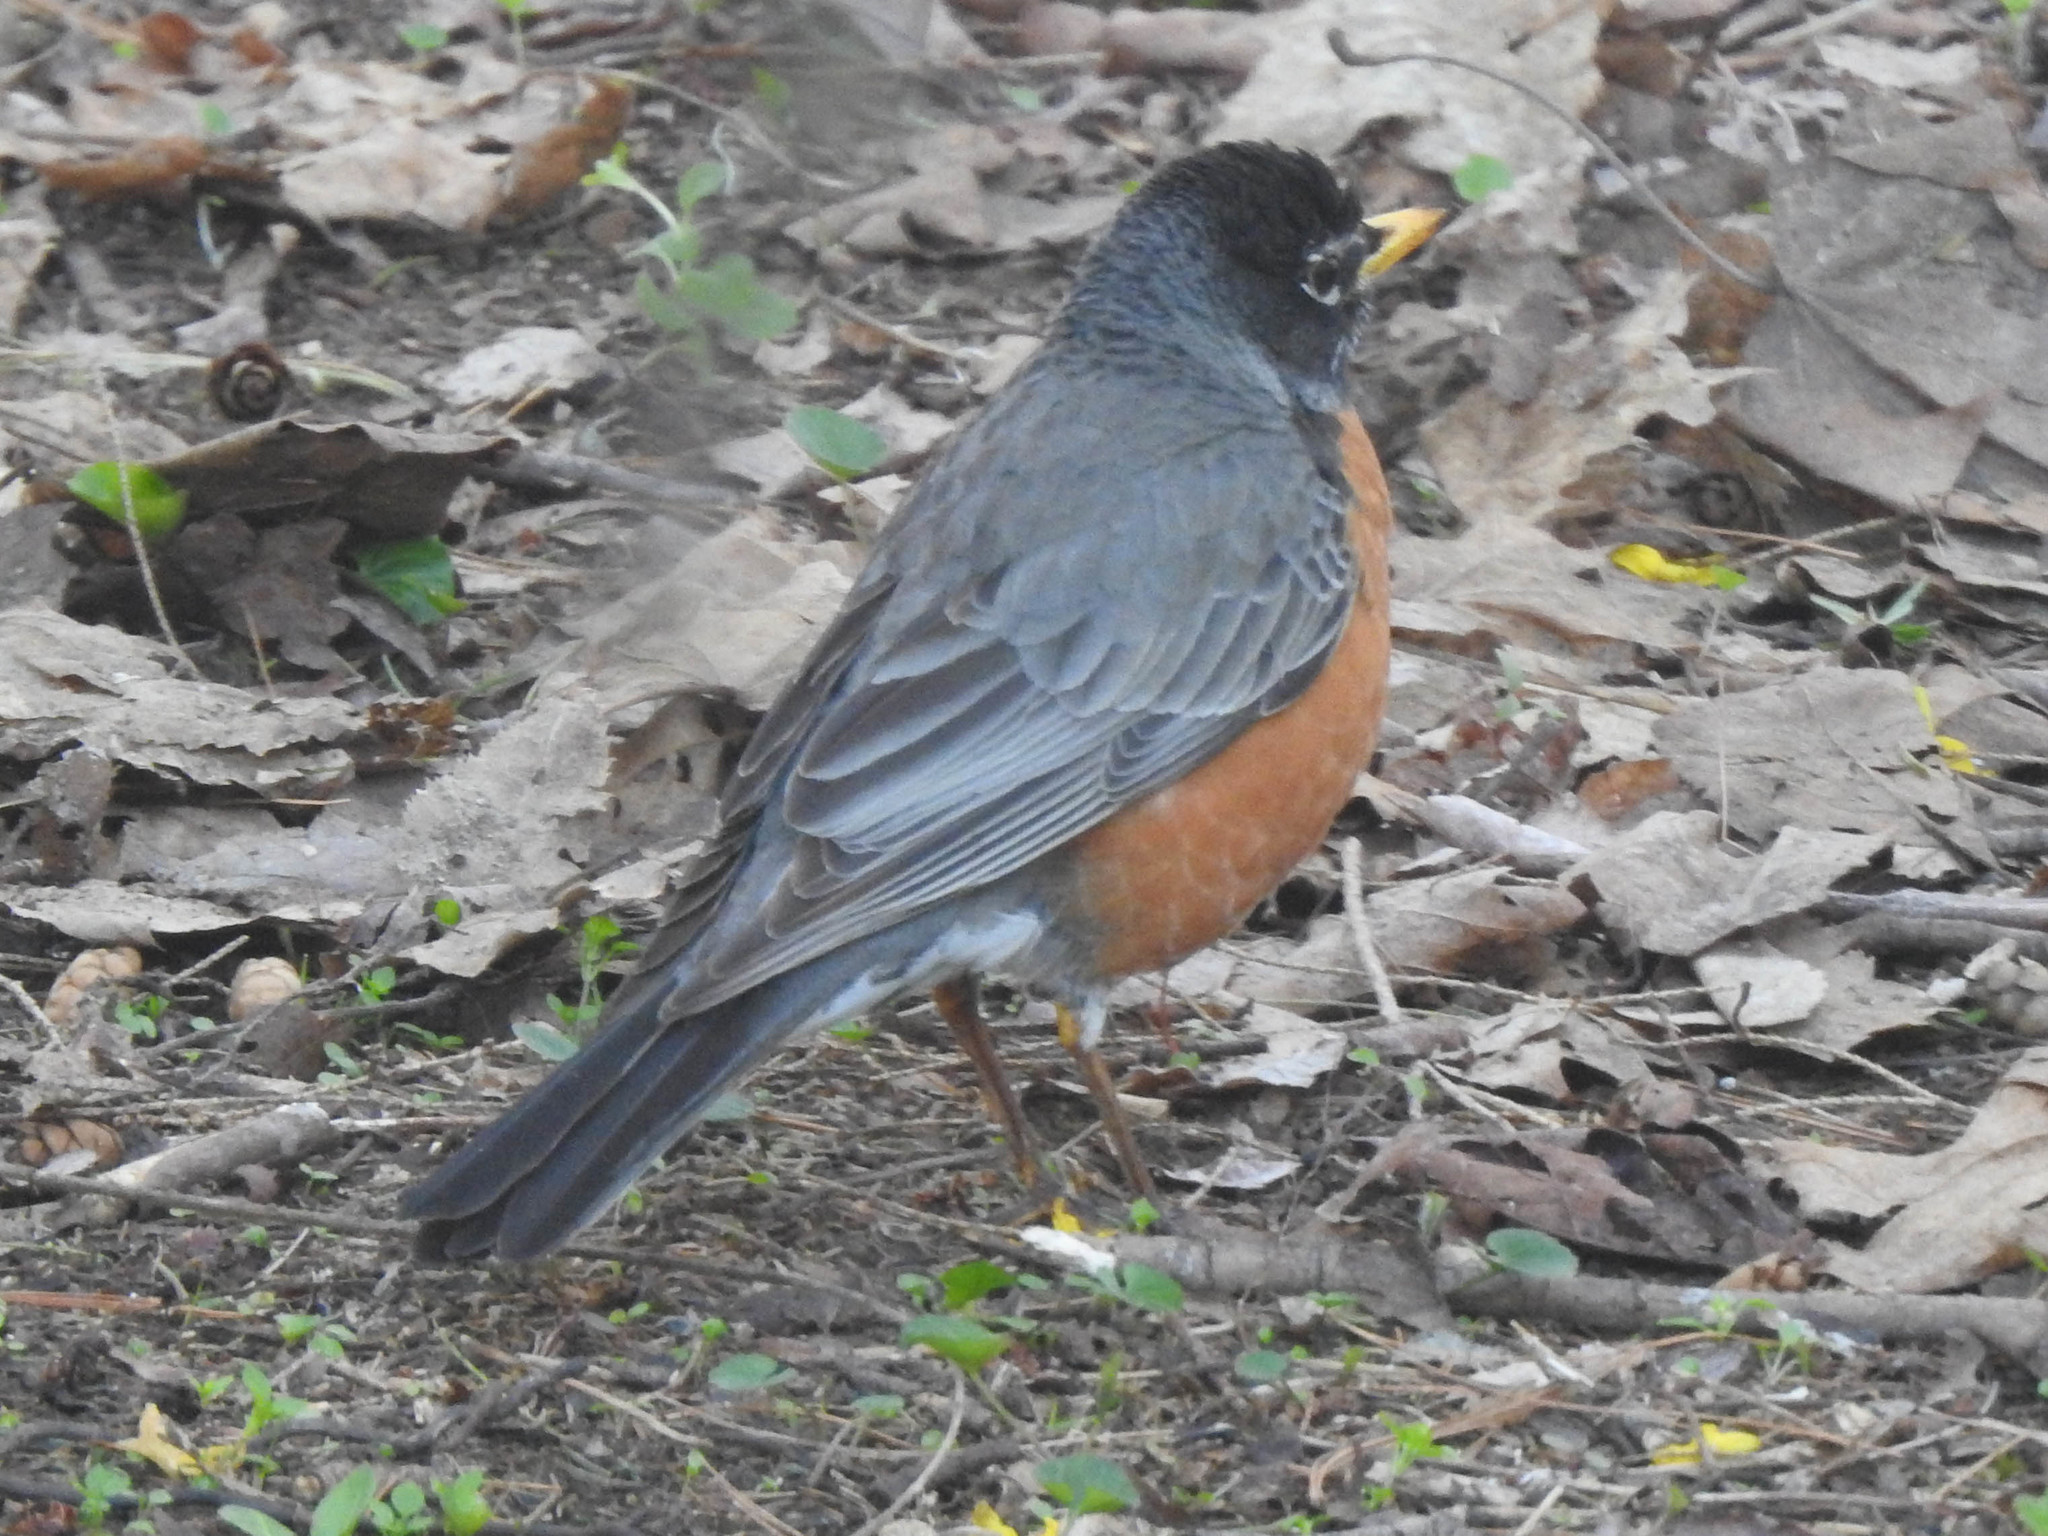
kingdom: Animalia
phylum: Chordata
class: Aves
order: Passeriformes
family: Turdidae
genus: Turdus
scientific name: Turdus migratorius
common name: American robin
